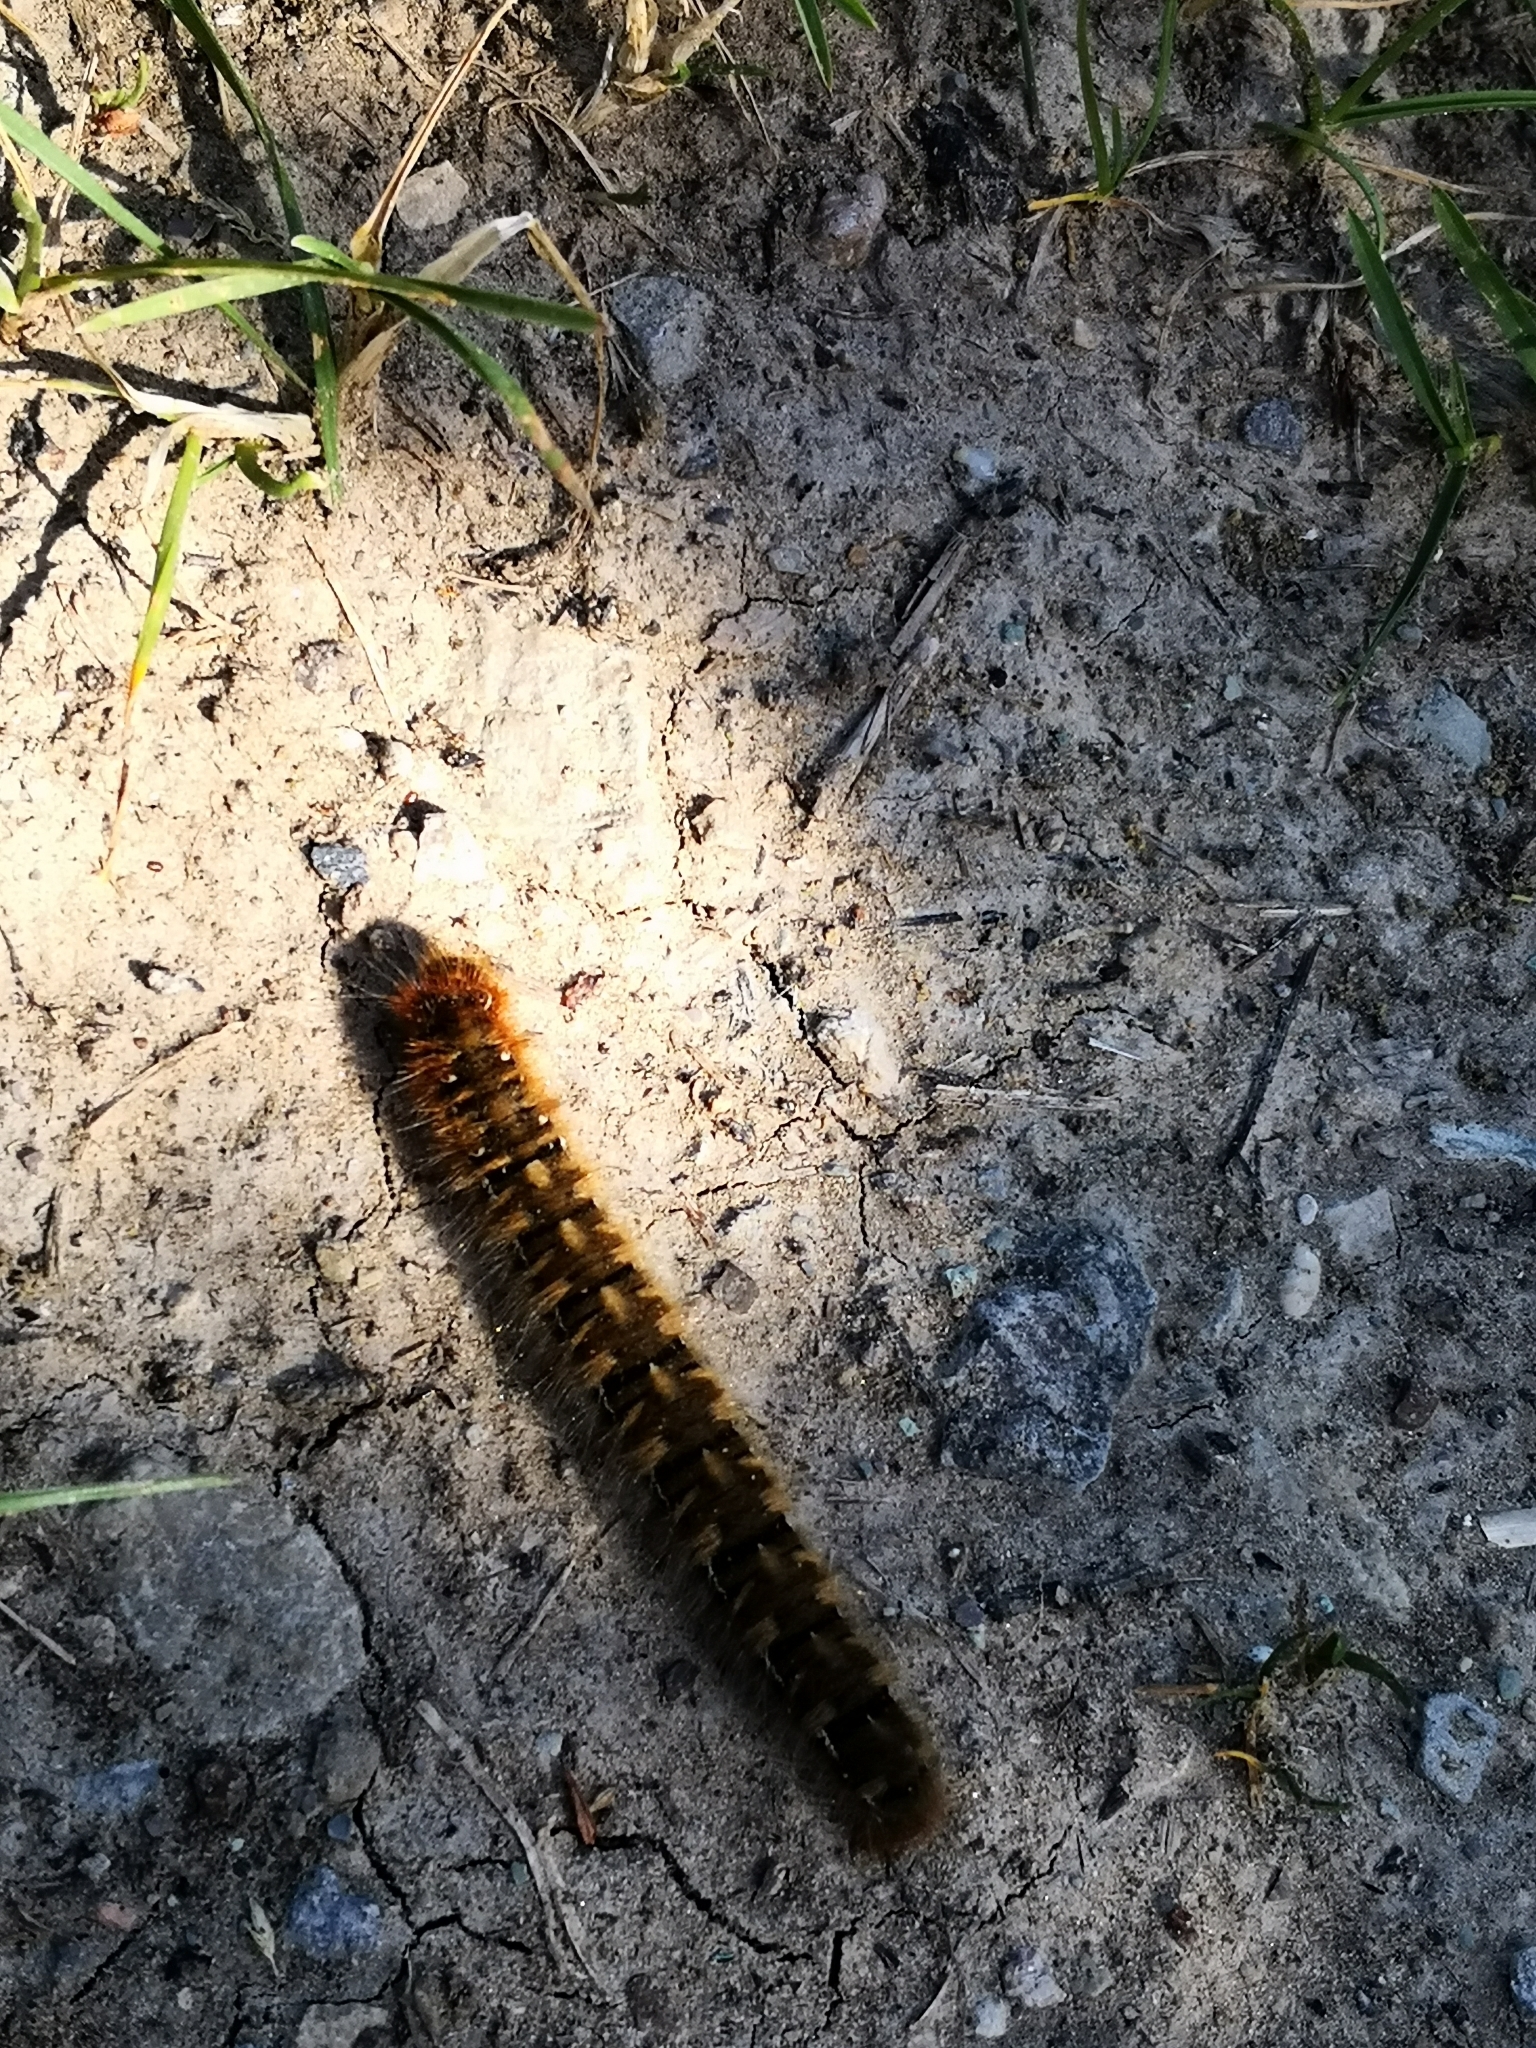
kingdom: Animalia
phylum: Arthropoda
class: Insecta
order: Lepidoptera
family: Lasiocampidae
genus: Lasiocampa
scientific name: Lasiocampa quercus
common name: Oak eggar
